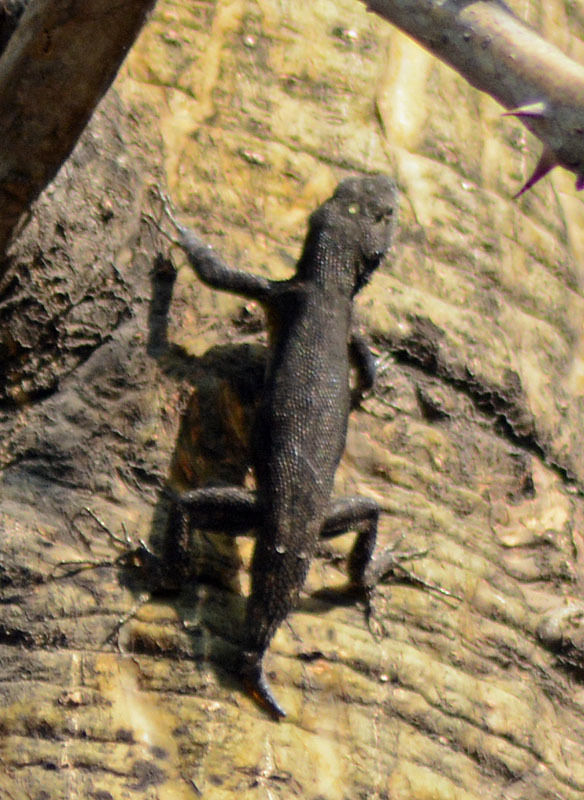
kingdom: Animalia
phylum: Chordata
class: Squamata
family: Phrynosomatidae
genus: Sceloporus
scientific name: Sceloporus grammicus
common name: Mesquite lizard
